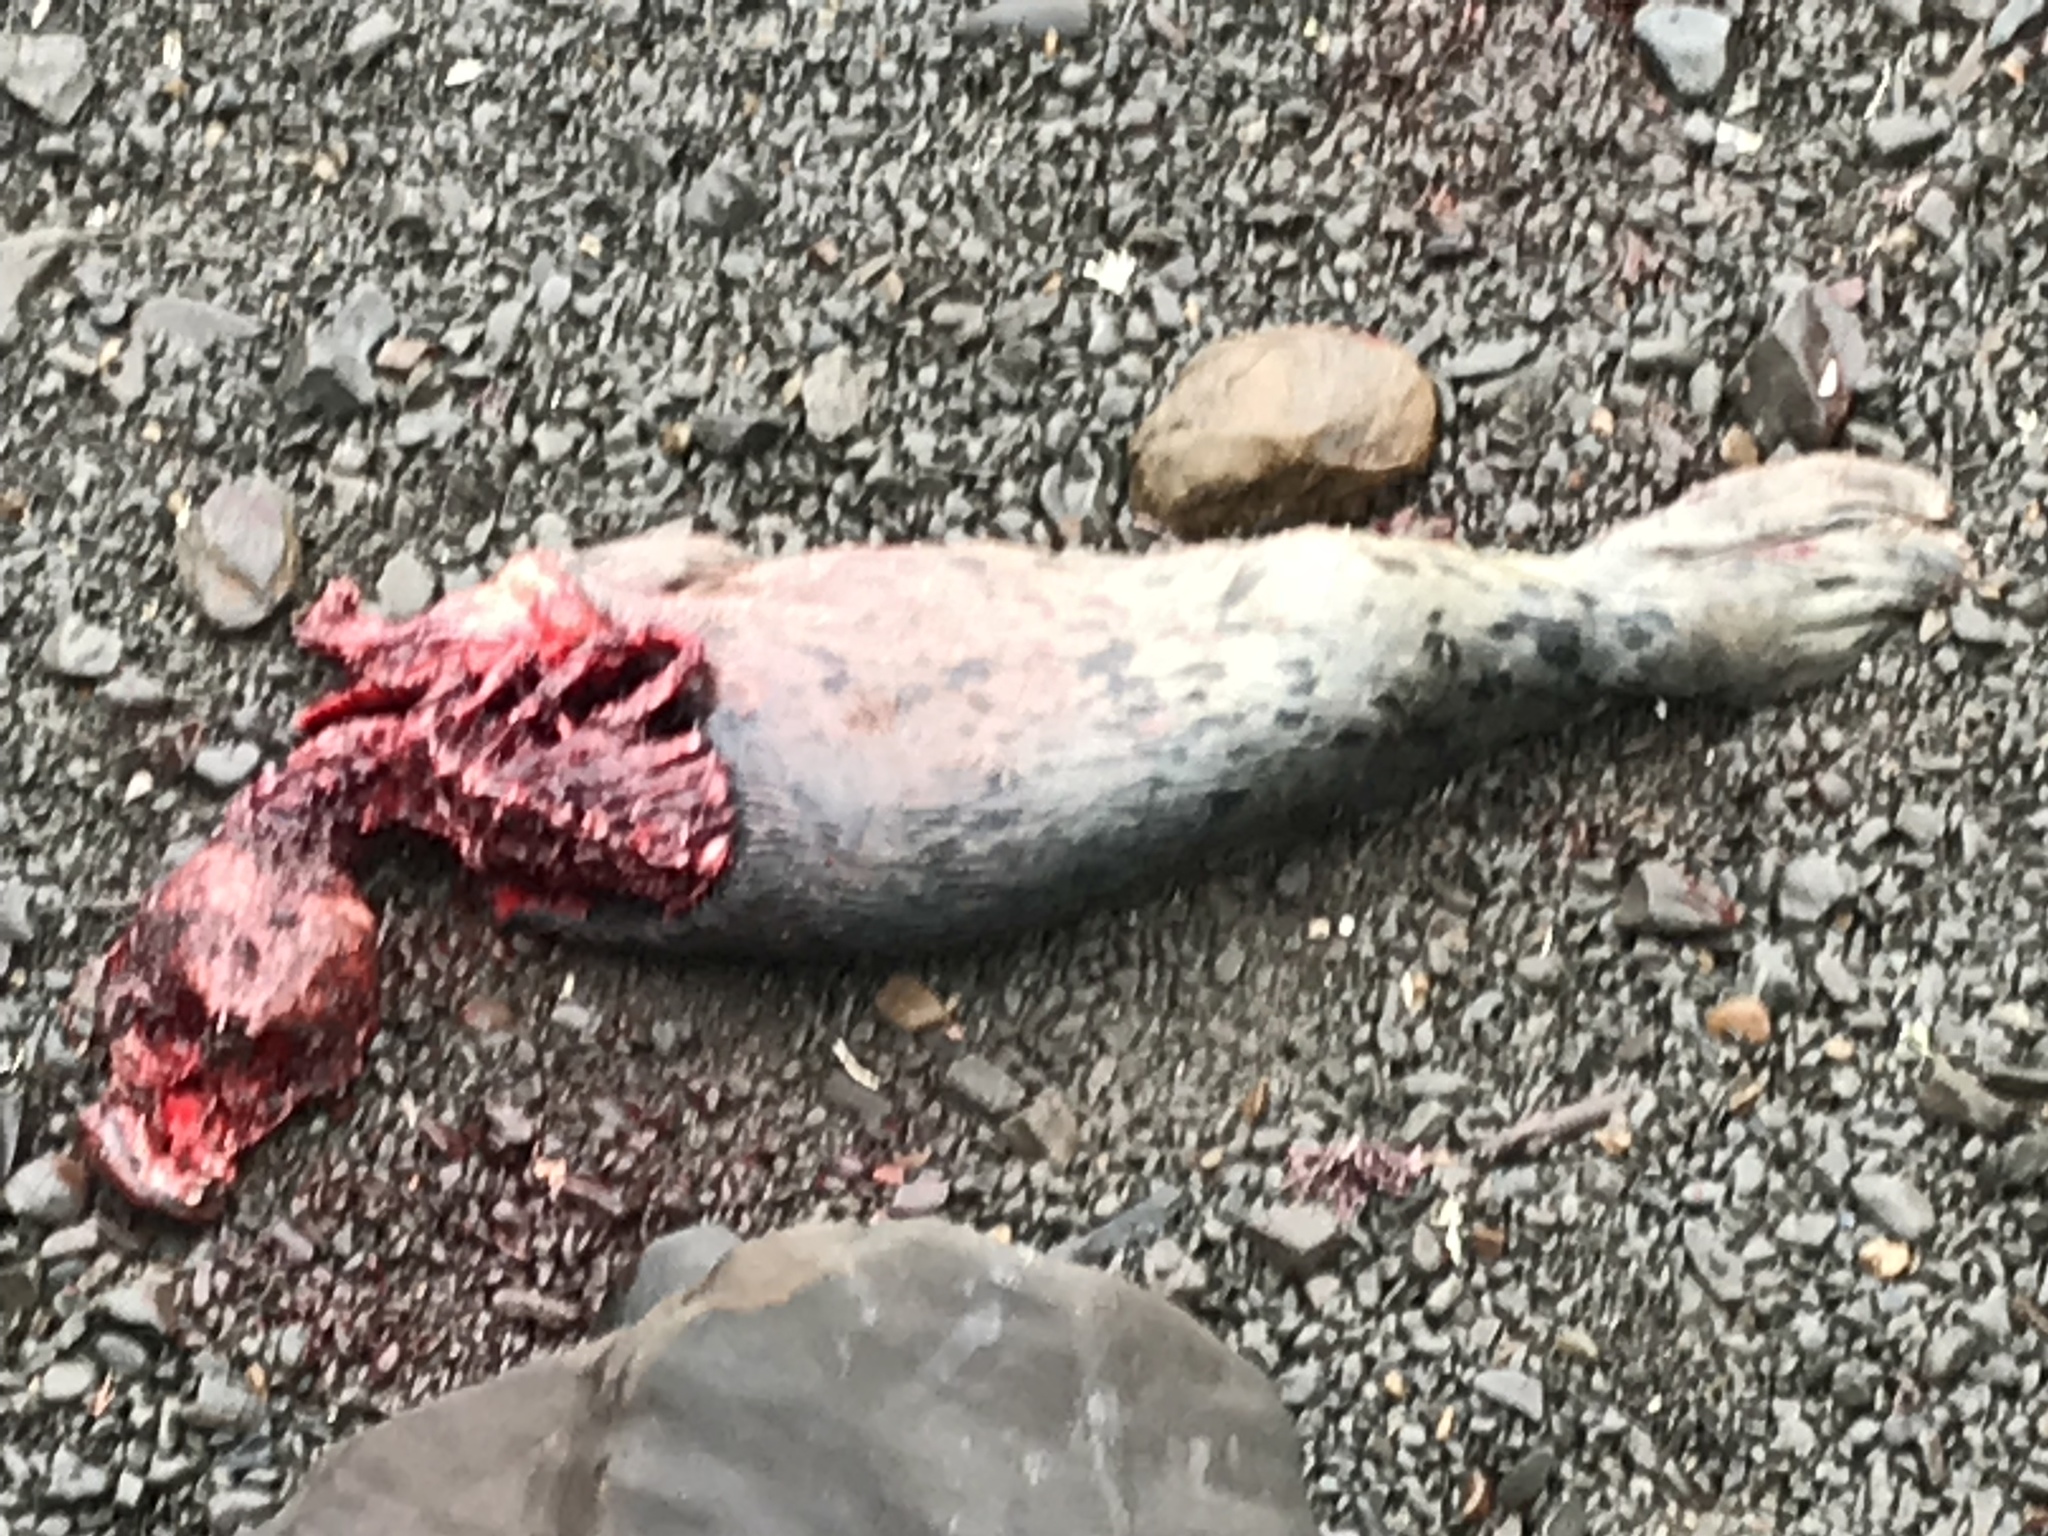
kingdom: Animalia
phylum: Chordata
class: Mammalia
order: Carnivora
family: Phocidae
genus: Phoca
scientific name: Phoca vitulina
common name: Harbor seal
